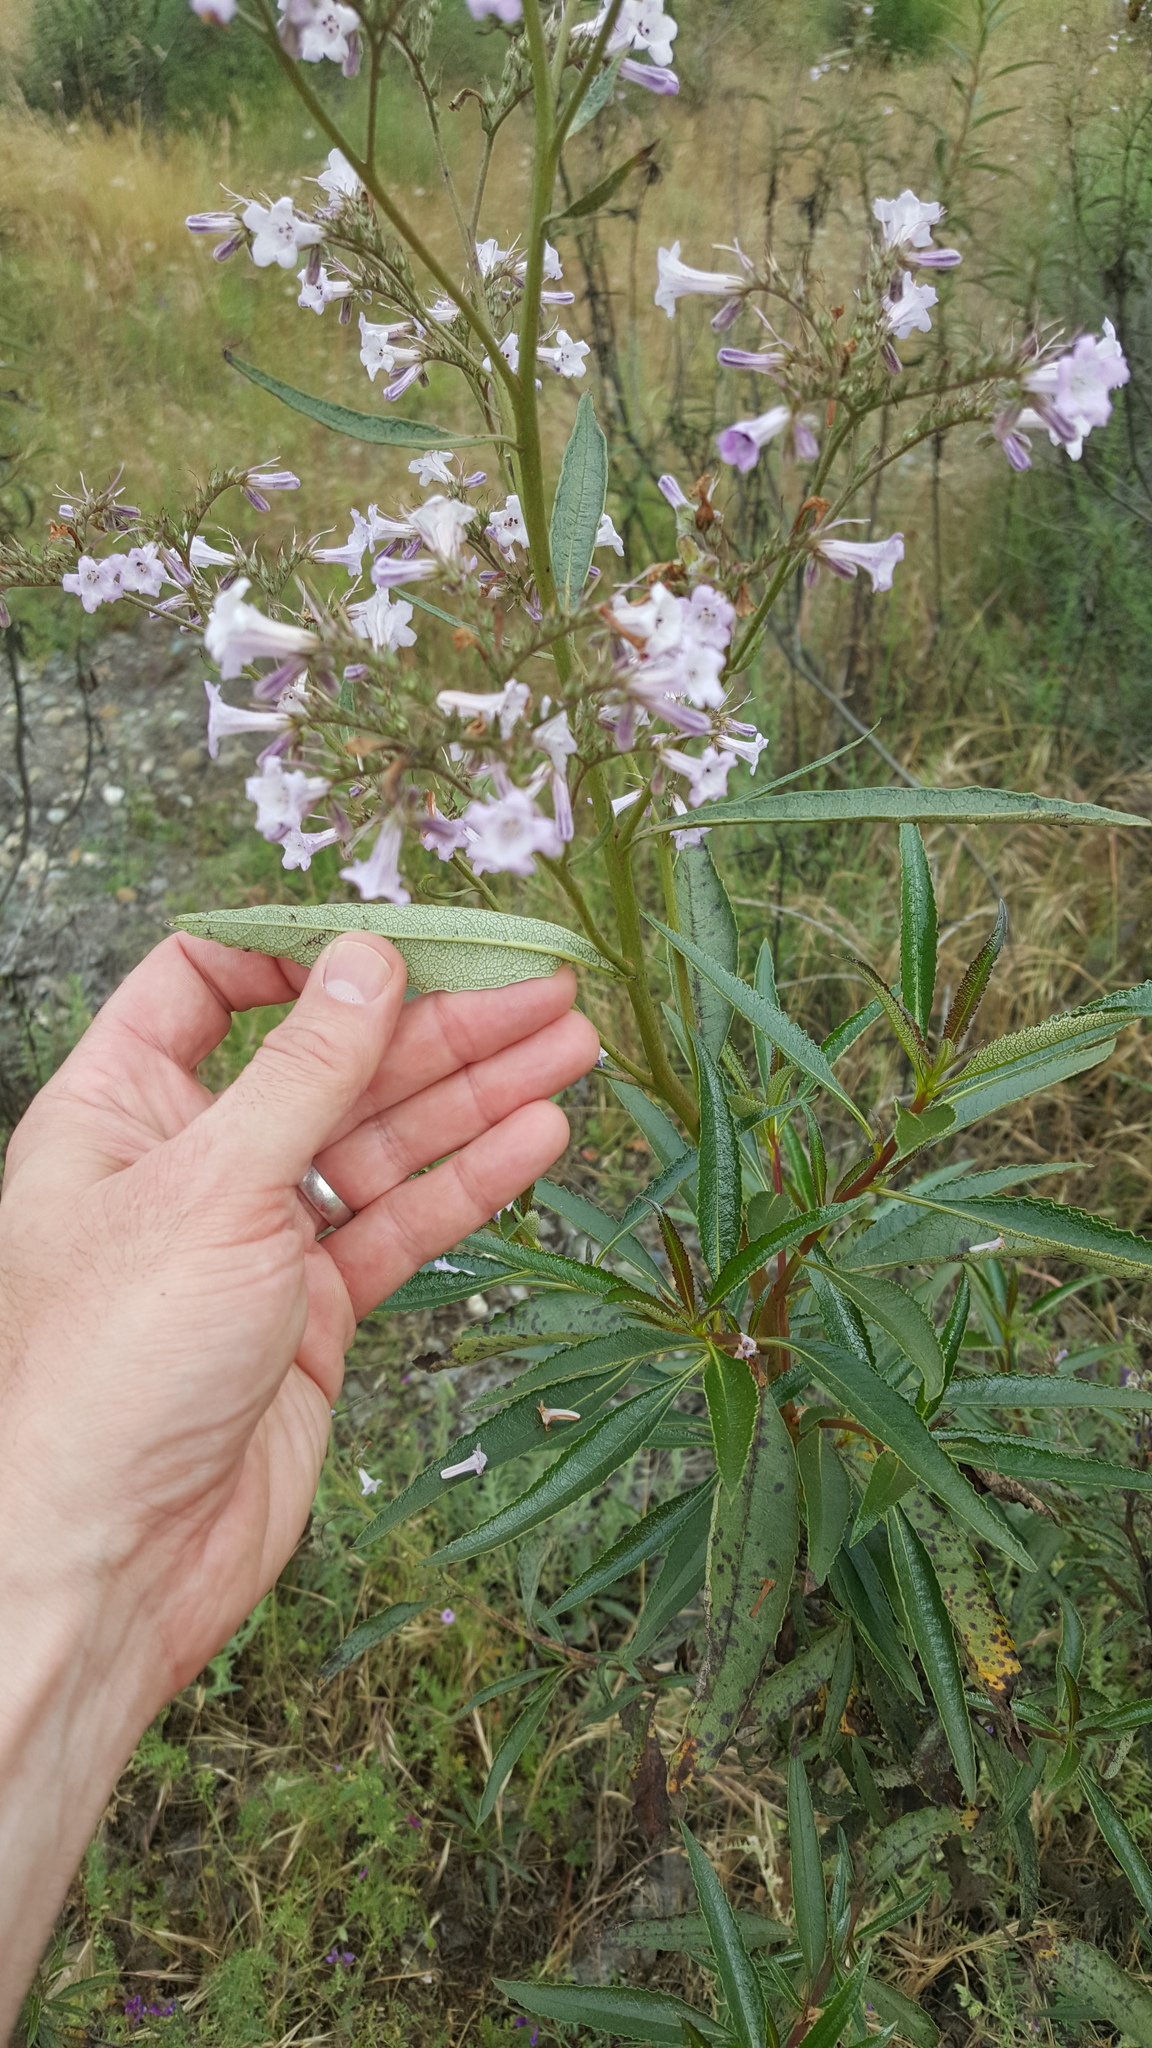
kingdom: Plantae
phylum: Tracheophyta
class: Magnoliopsida
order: Boraginales
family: Namaceae
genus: Eriodictyon
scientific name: Eriodictyon californicum
